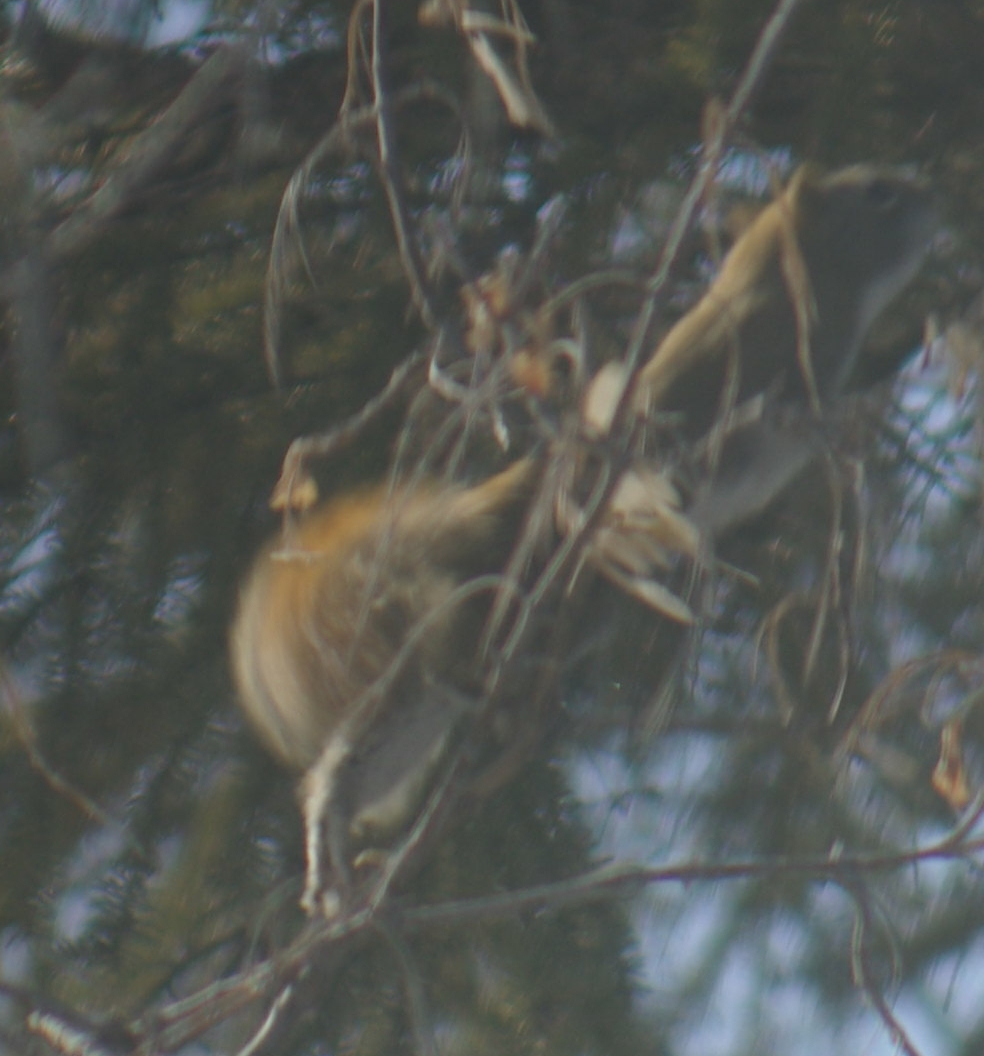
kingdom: Animalia
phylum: Chordata
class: Mammalia
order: Rodentia
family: Sciuridae
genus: Tamiasciurus
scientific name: Tamiasciurus hudsonicus
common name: Red squirrel
